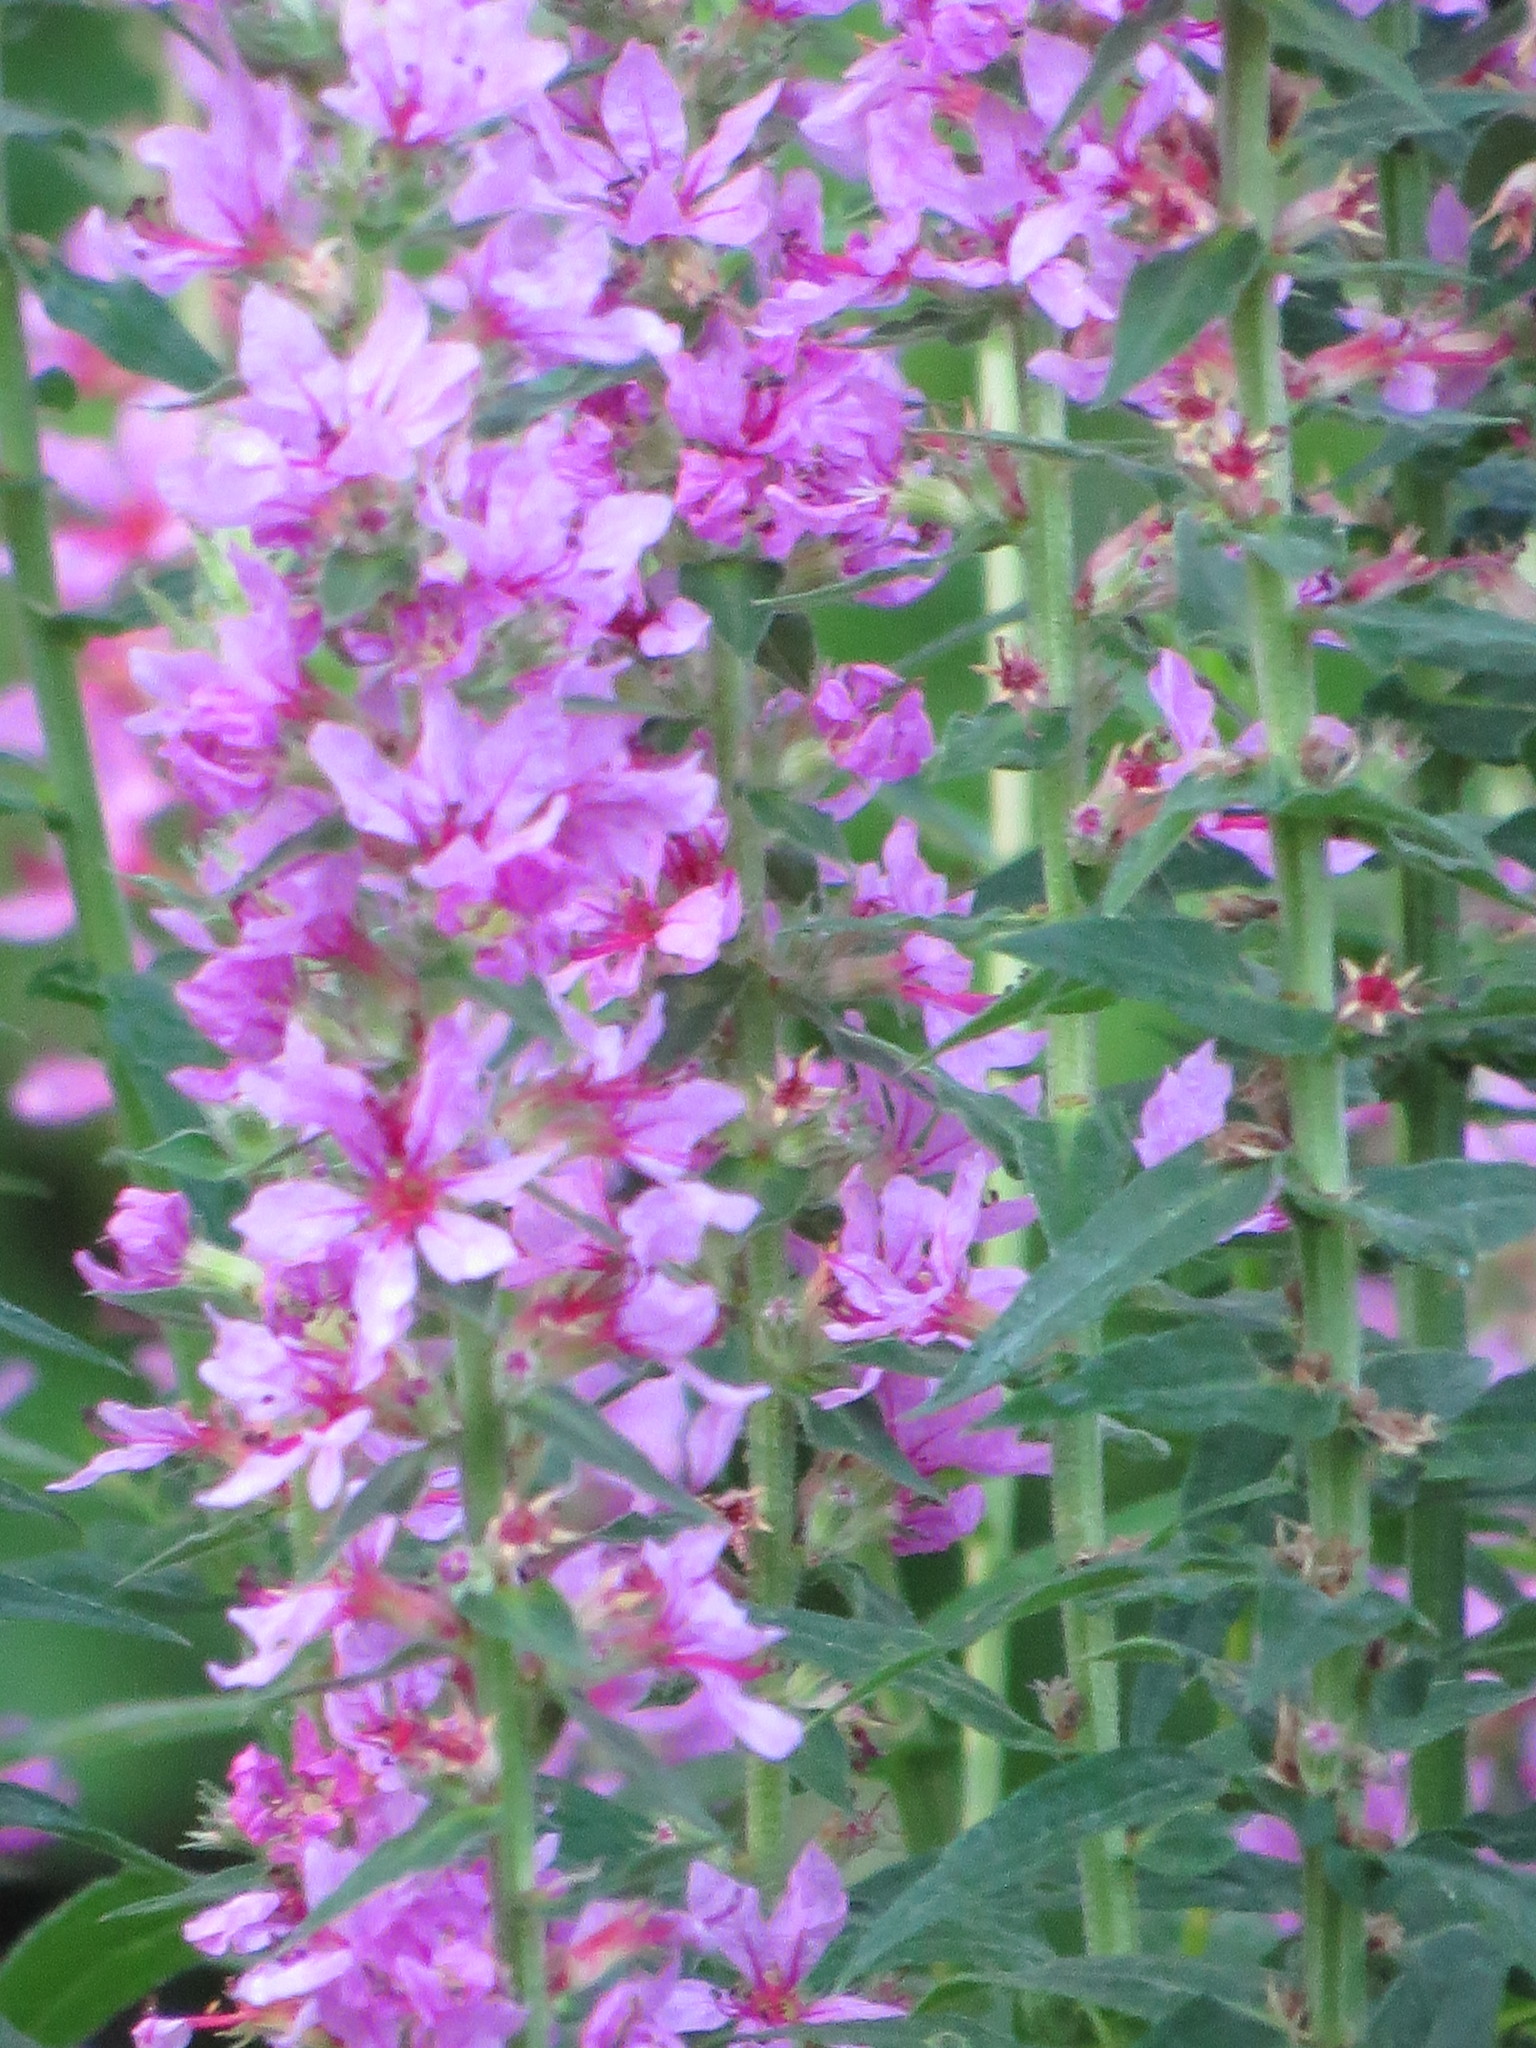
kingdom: Plantae
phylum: Tracheophyta
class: Magnoliopsida
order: Myrtales
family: Lythraceae
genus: Lythrum
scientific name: Lythrum salicaria
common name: Purple loosestrife
